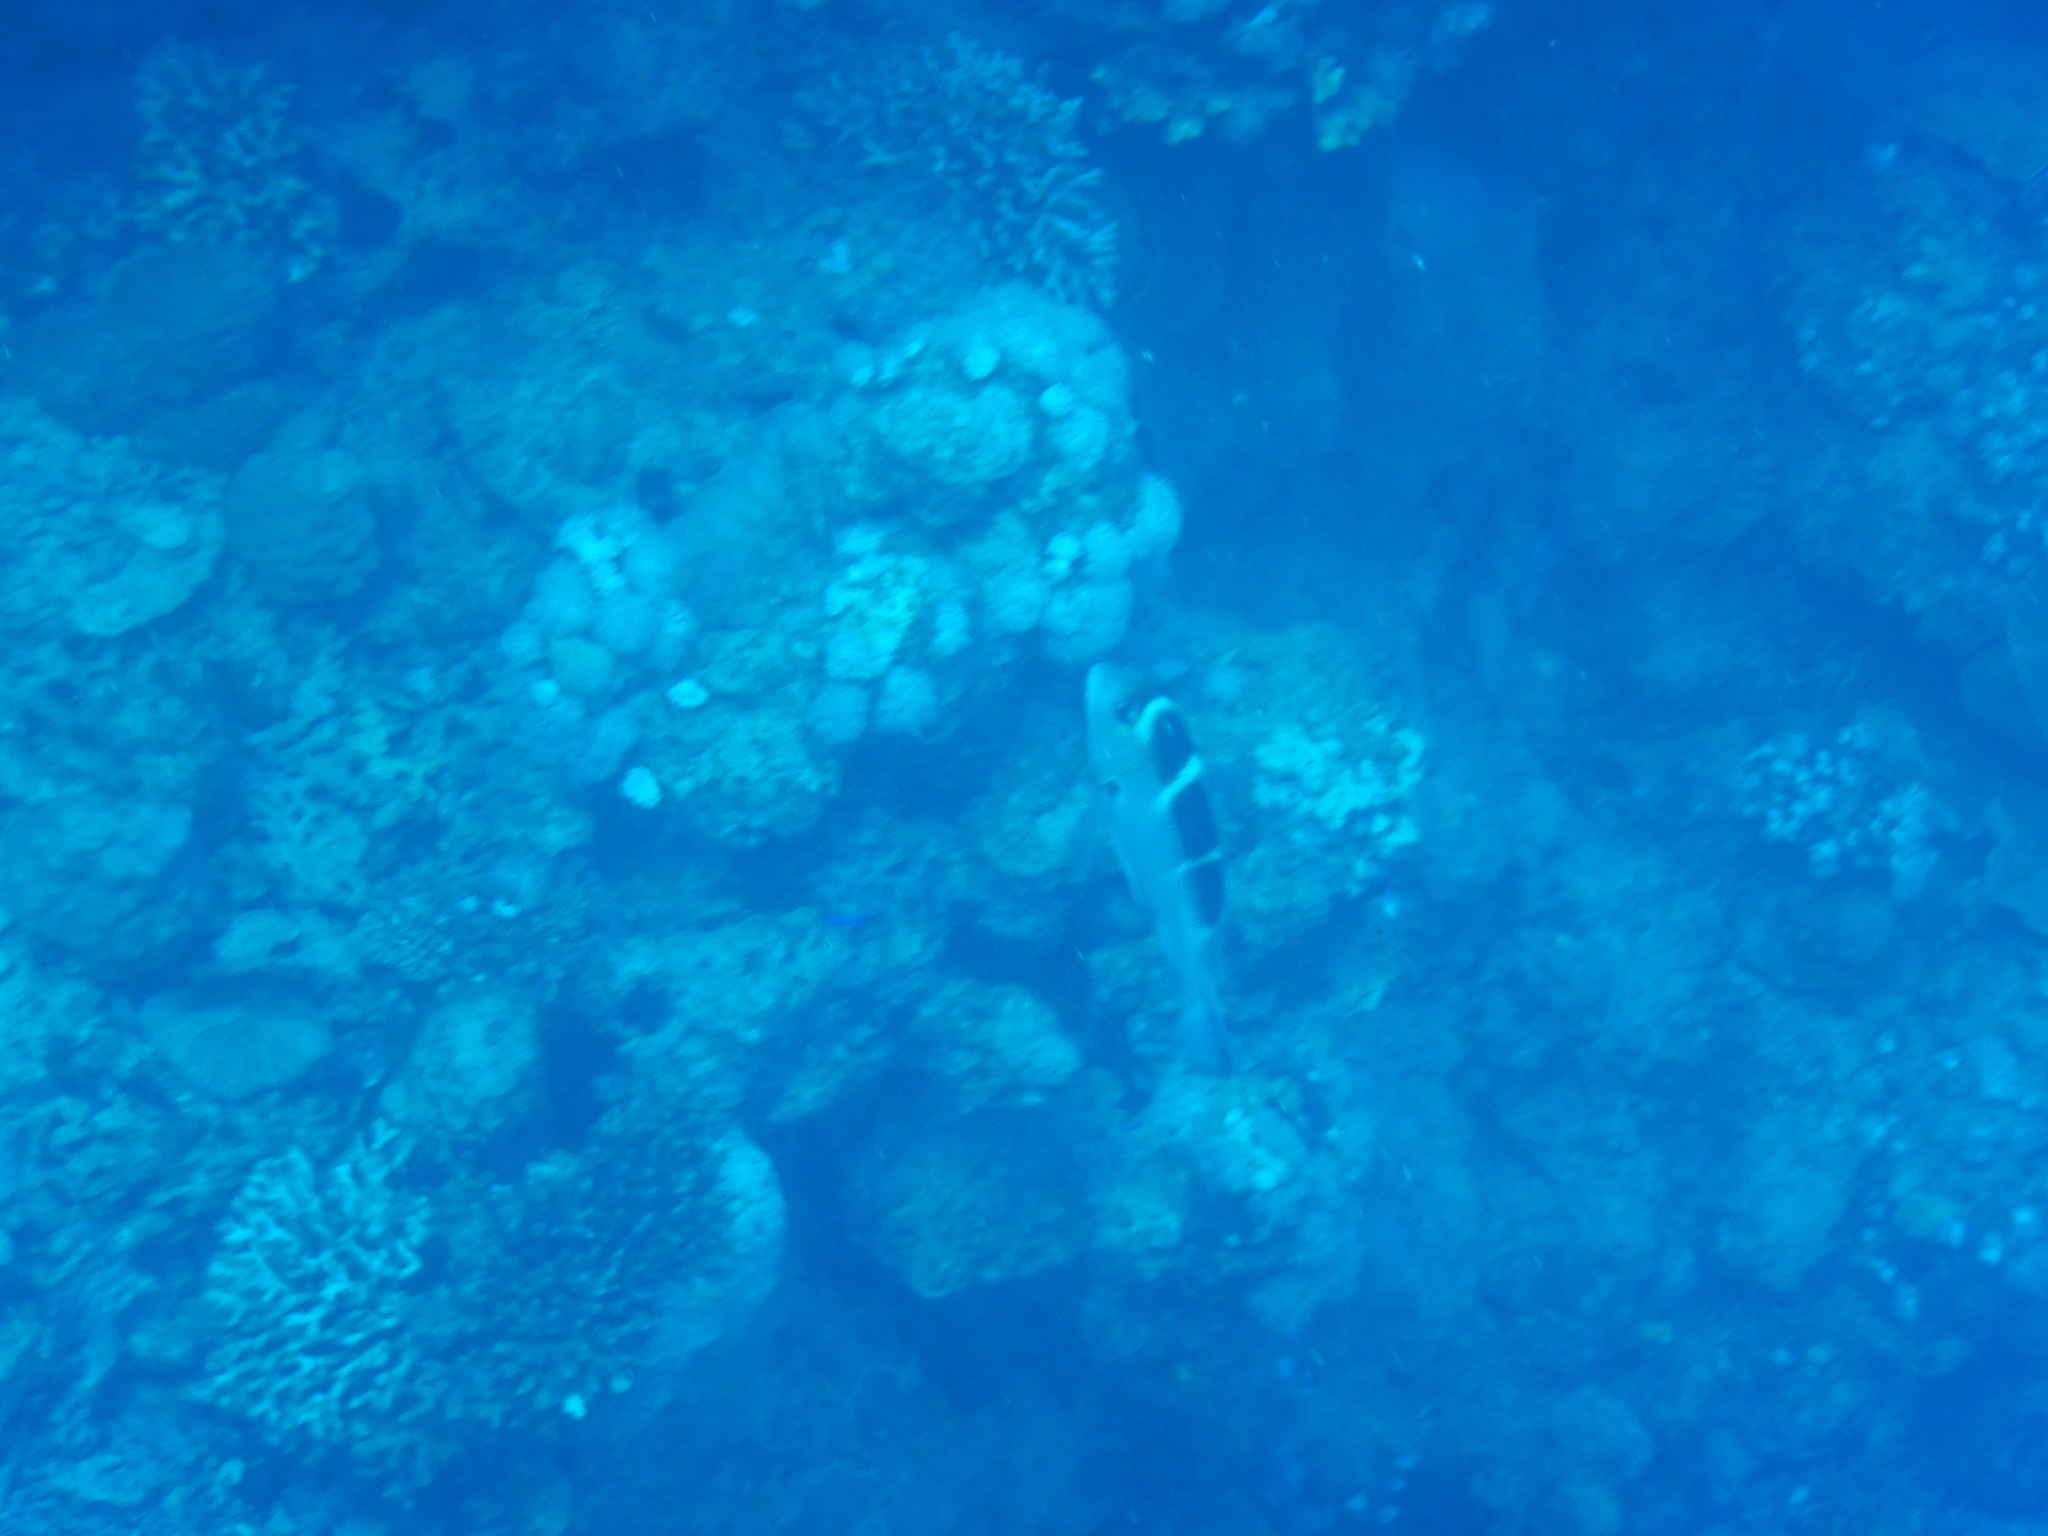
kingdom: Animalia
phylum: Chordata
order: Perciformes
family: Lethrinidae
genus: Monotaxis
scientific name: Monotaxis grandoculis
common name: Bigeye emperor
